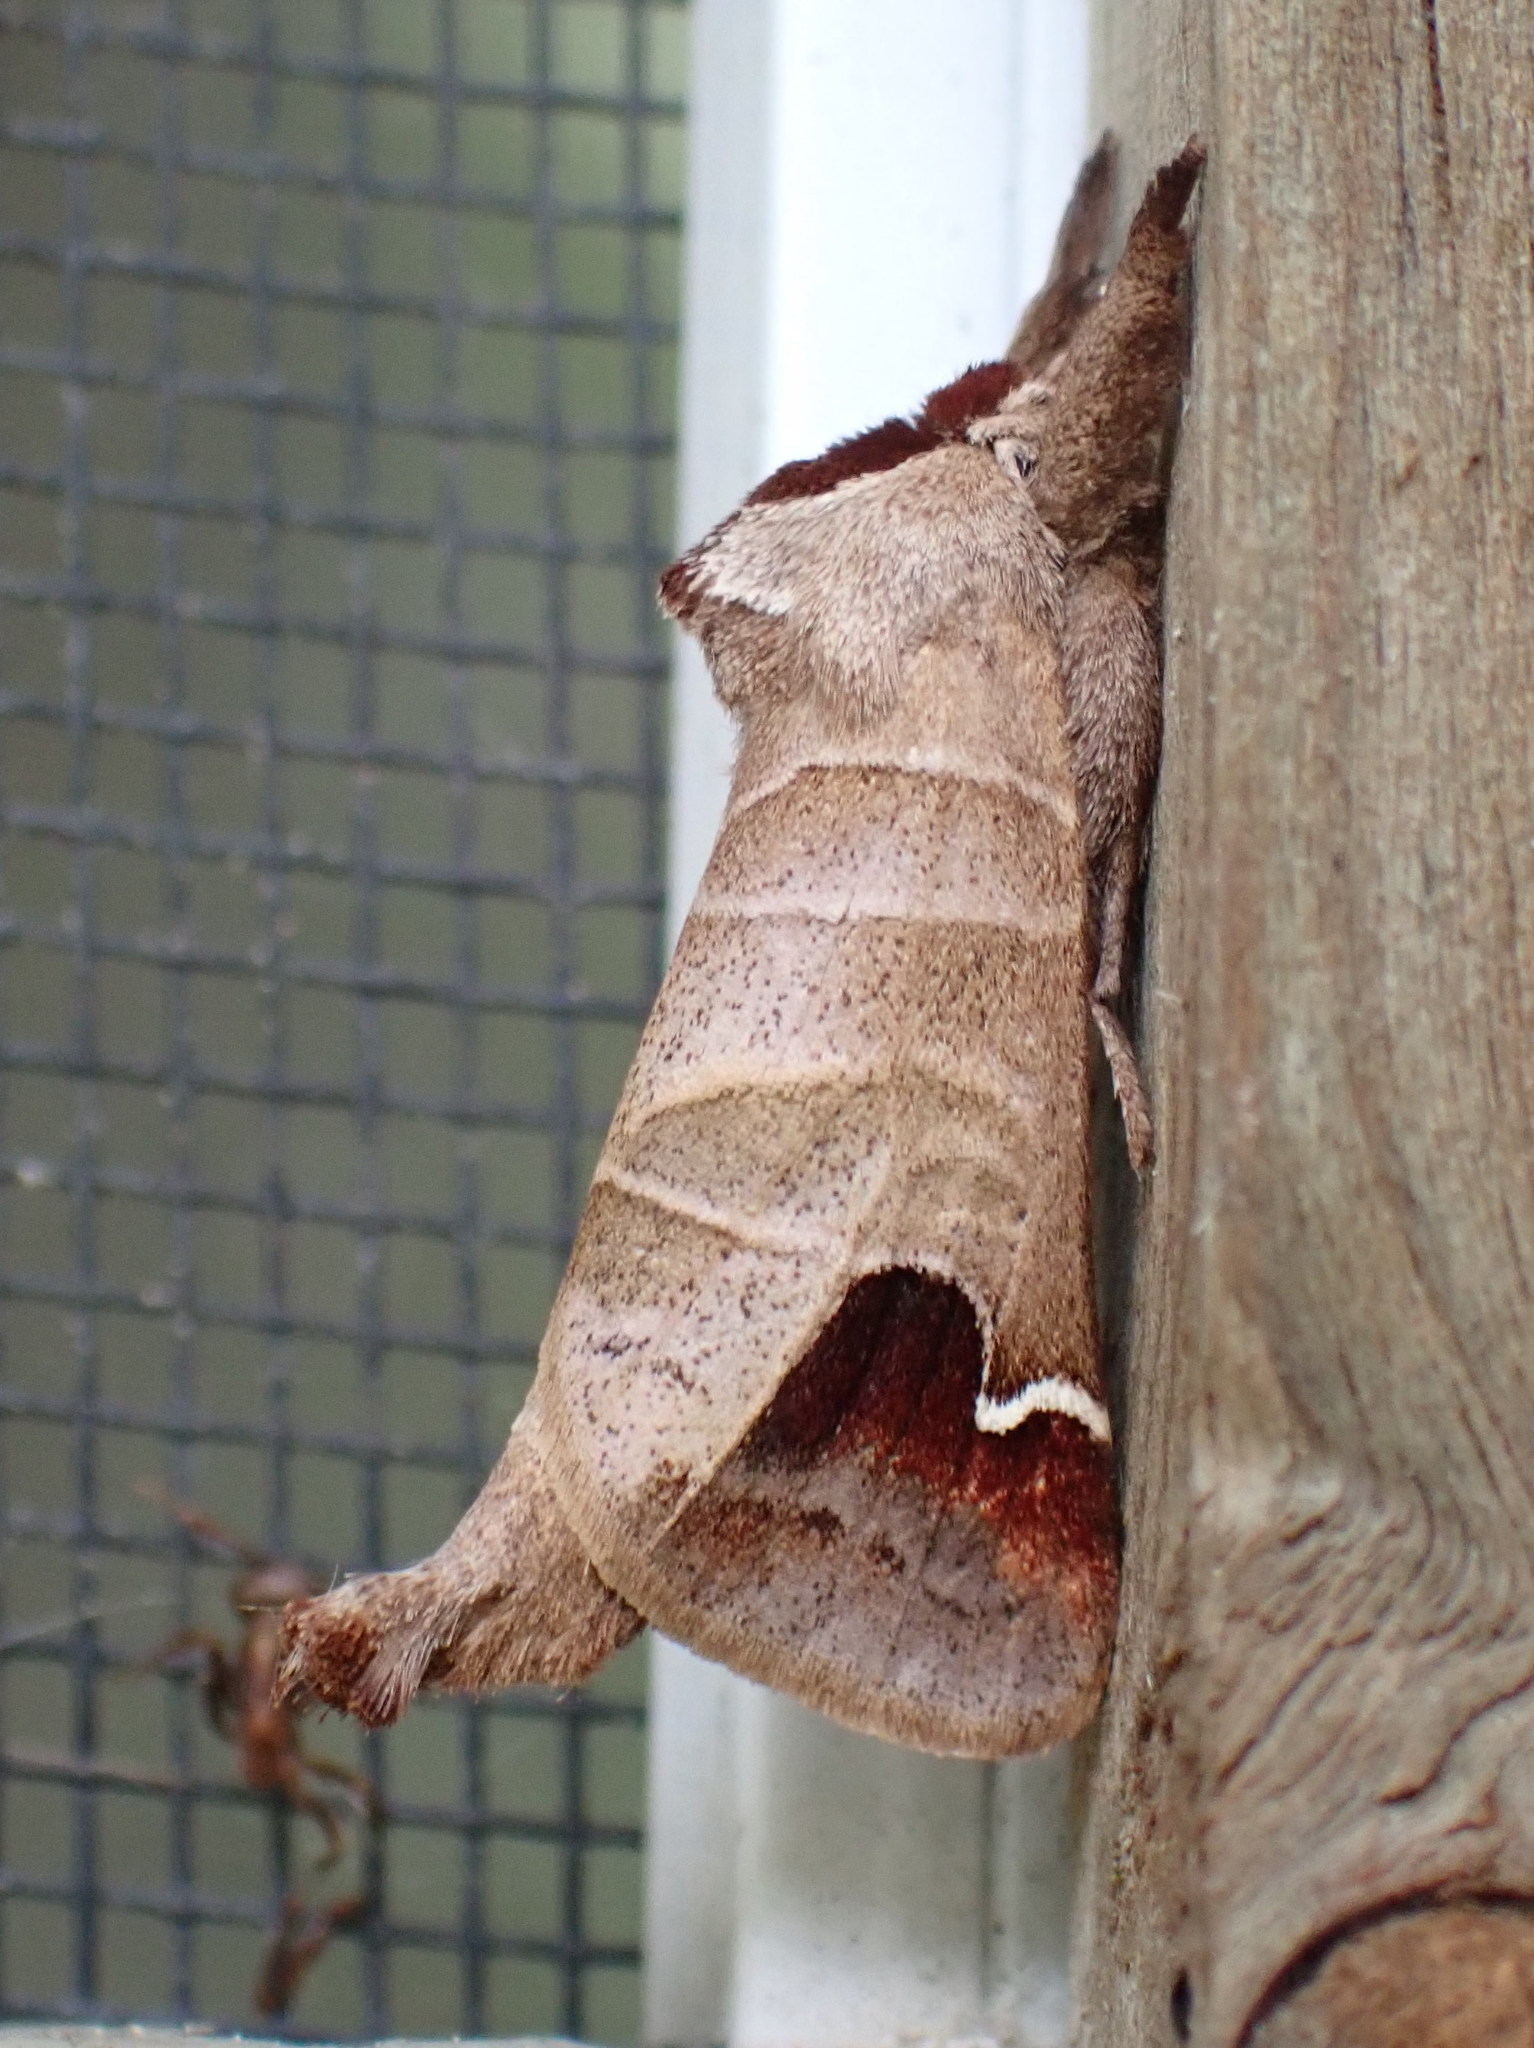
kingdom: Animalia
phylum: Arthropoda
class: Insecta
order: Lepidoptera
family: Notodontidae
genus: Clostera
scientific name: Clostera albosigma
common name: Sigmoid prominent
